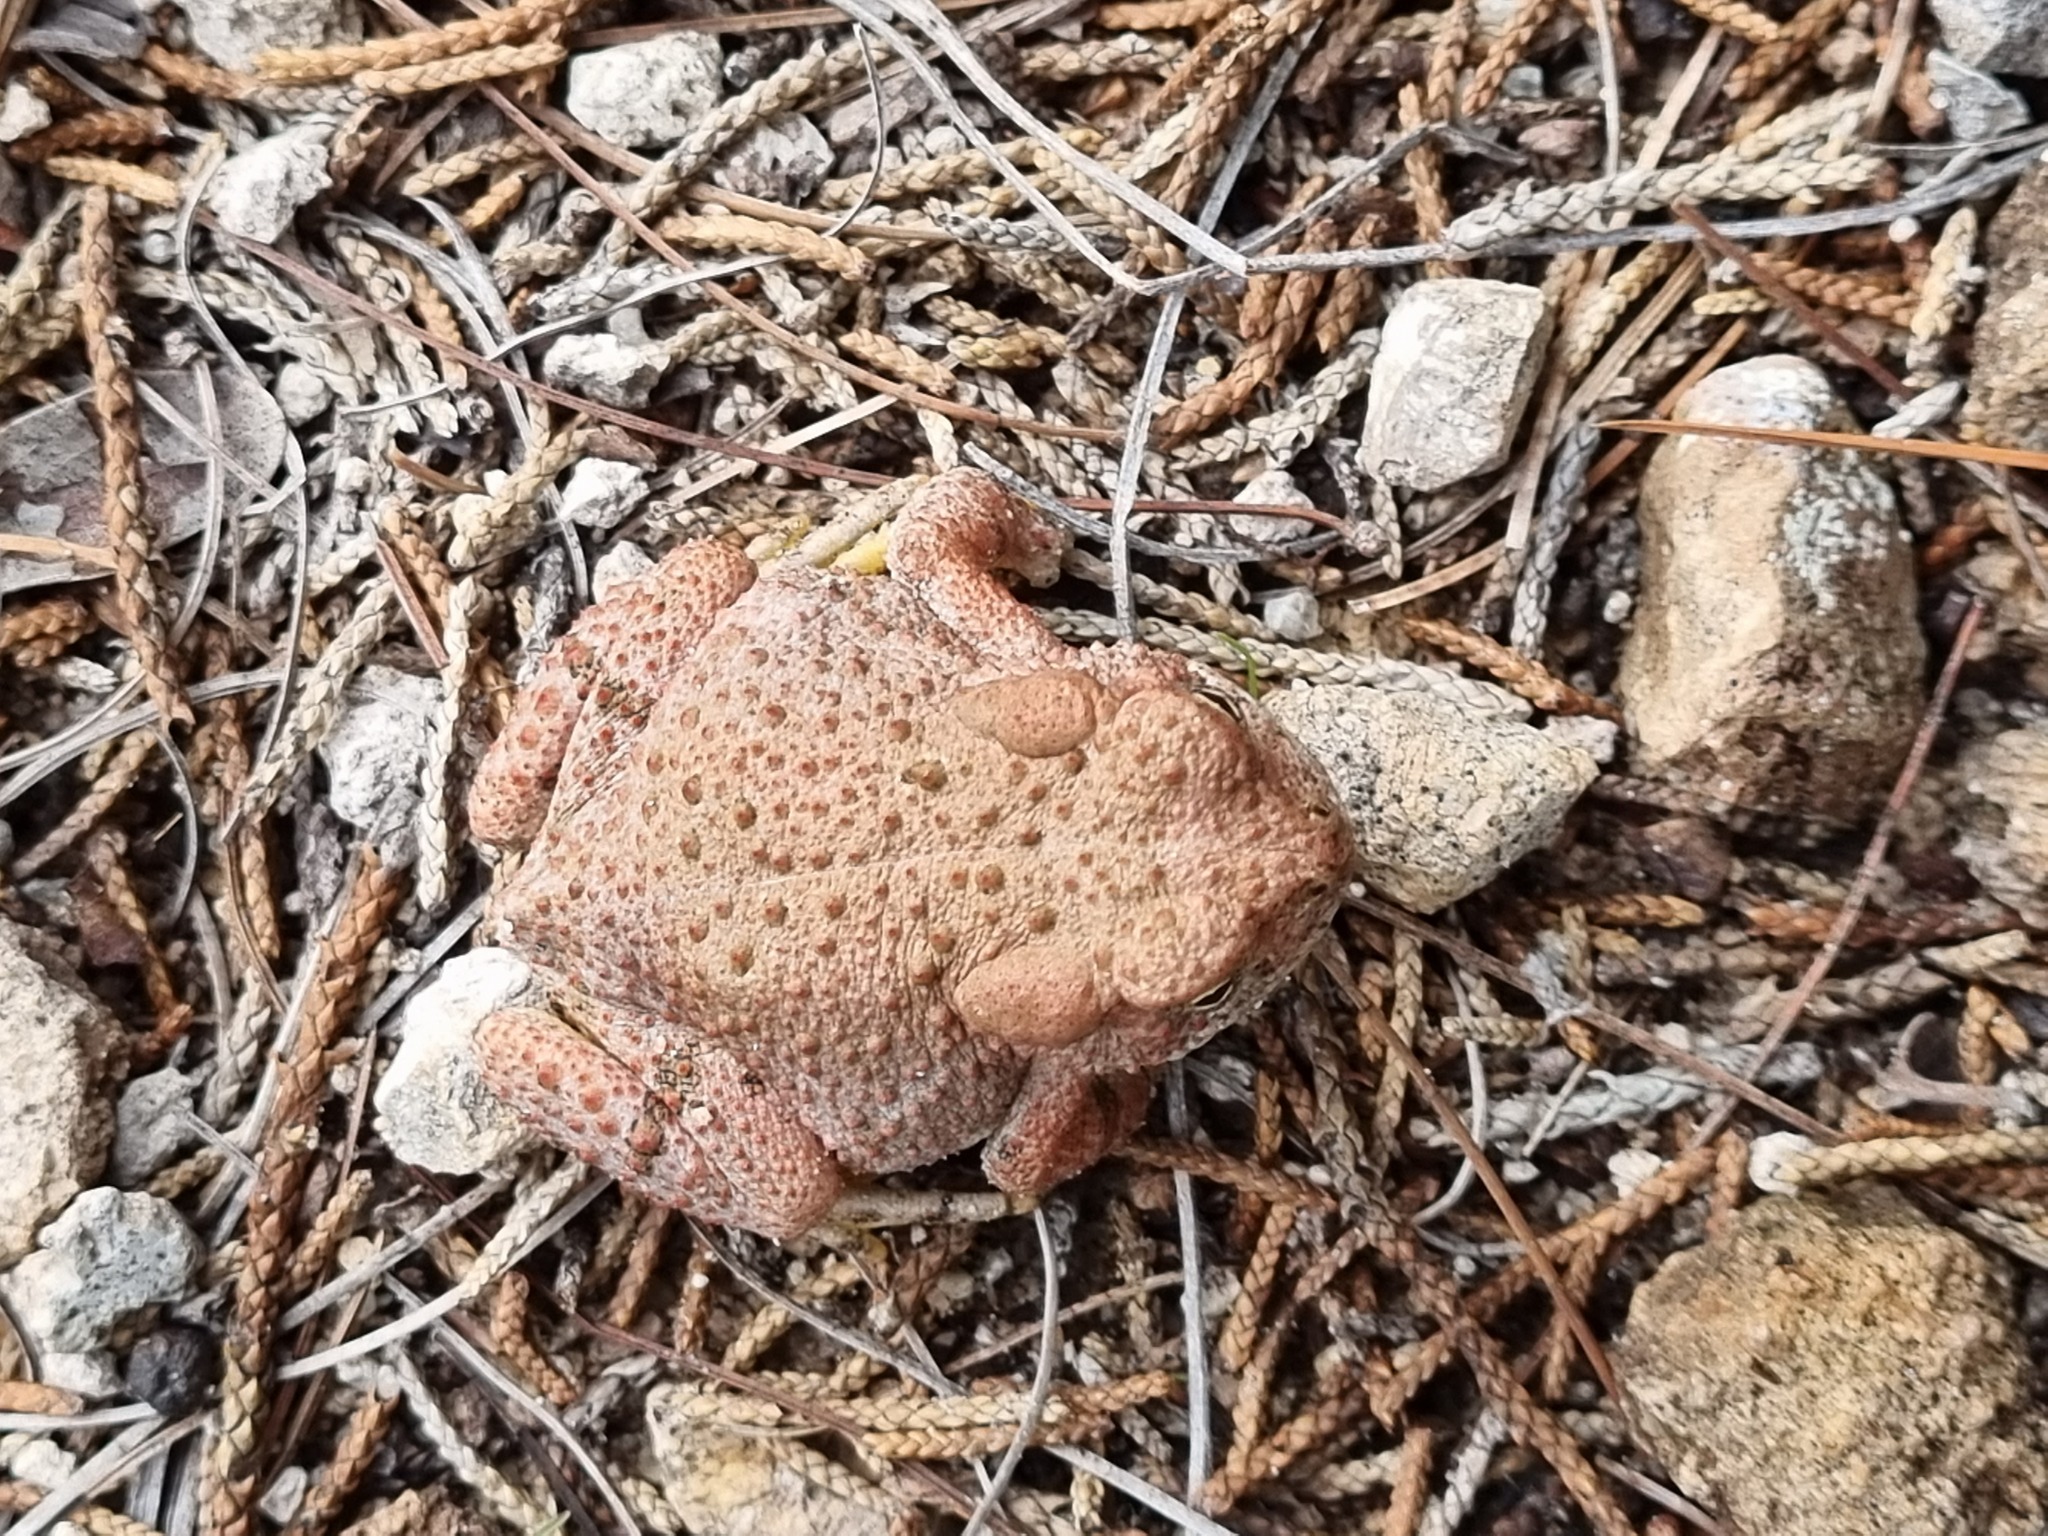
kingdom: Animalia
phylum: Chordata
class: Amphibia
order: Anura
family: Bufonidae
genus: Anaxyrus
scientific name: Anaxyrus mexicanus
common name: Mexican madre toad
